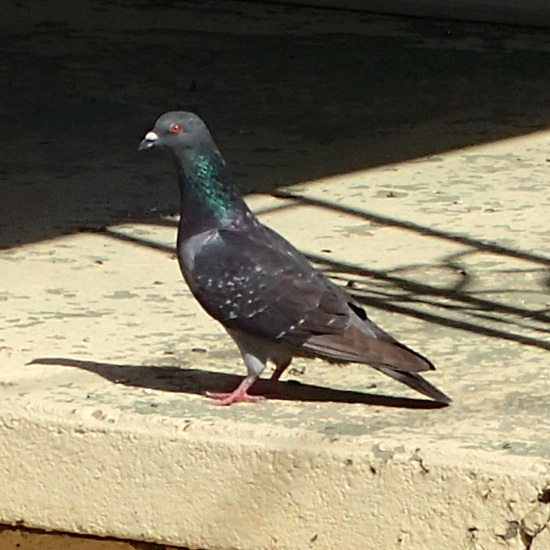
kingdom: Animalia
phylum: Chordata
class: Aves
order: Columbiformes
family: Columbidae
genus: Columba
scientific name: Columba livia
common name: Rock pigeon
